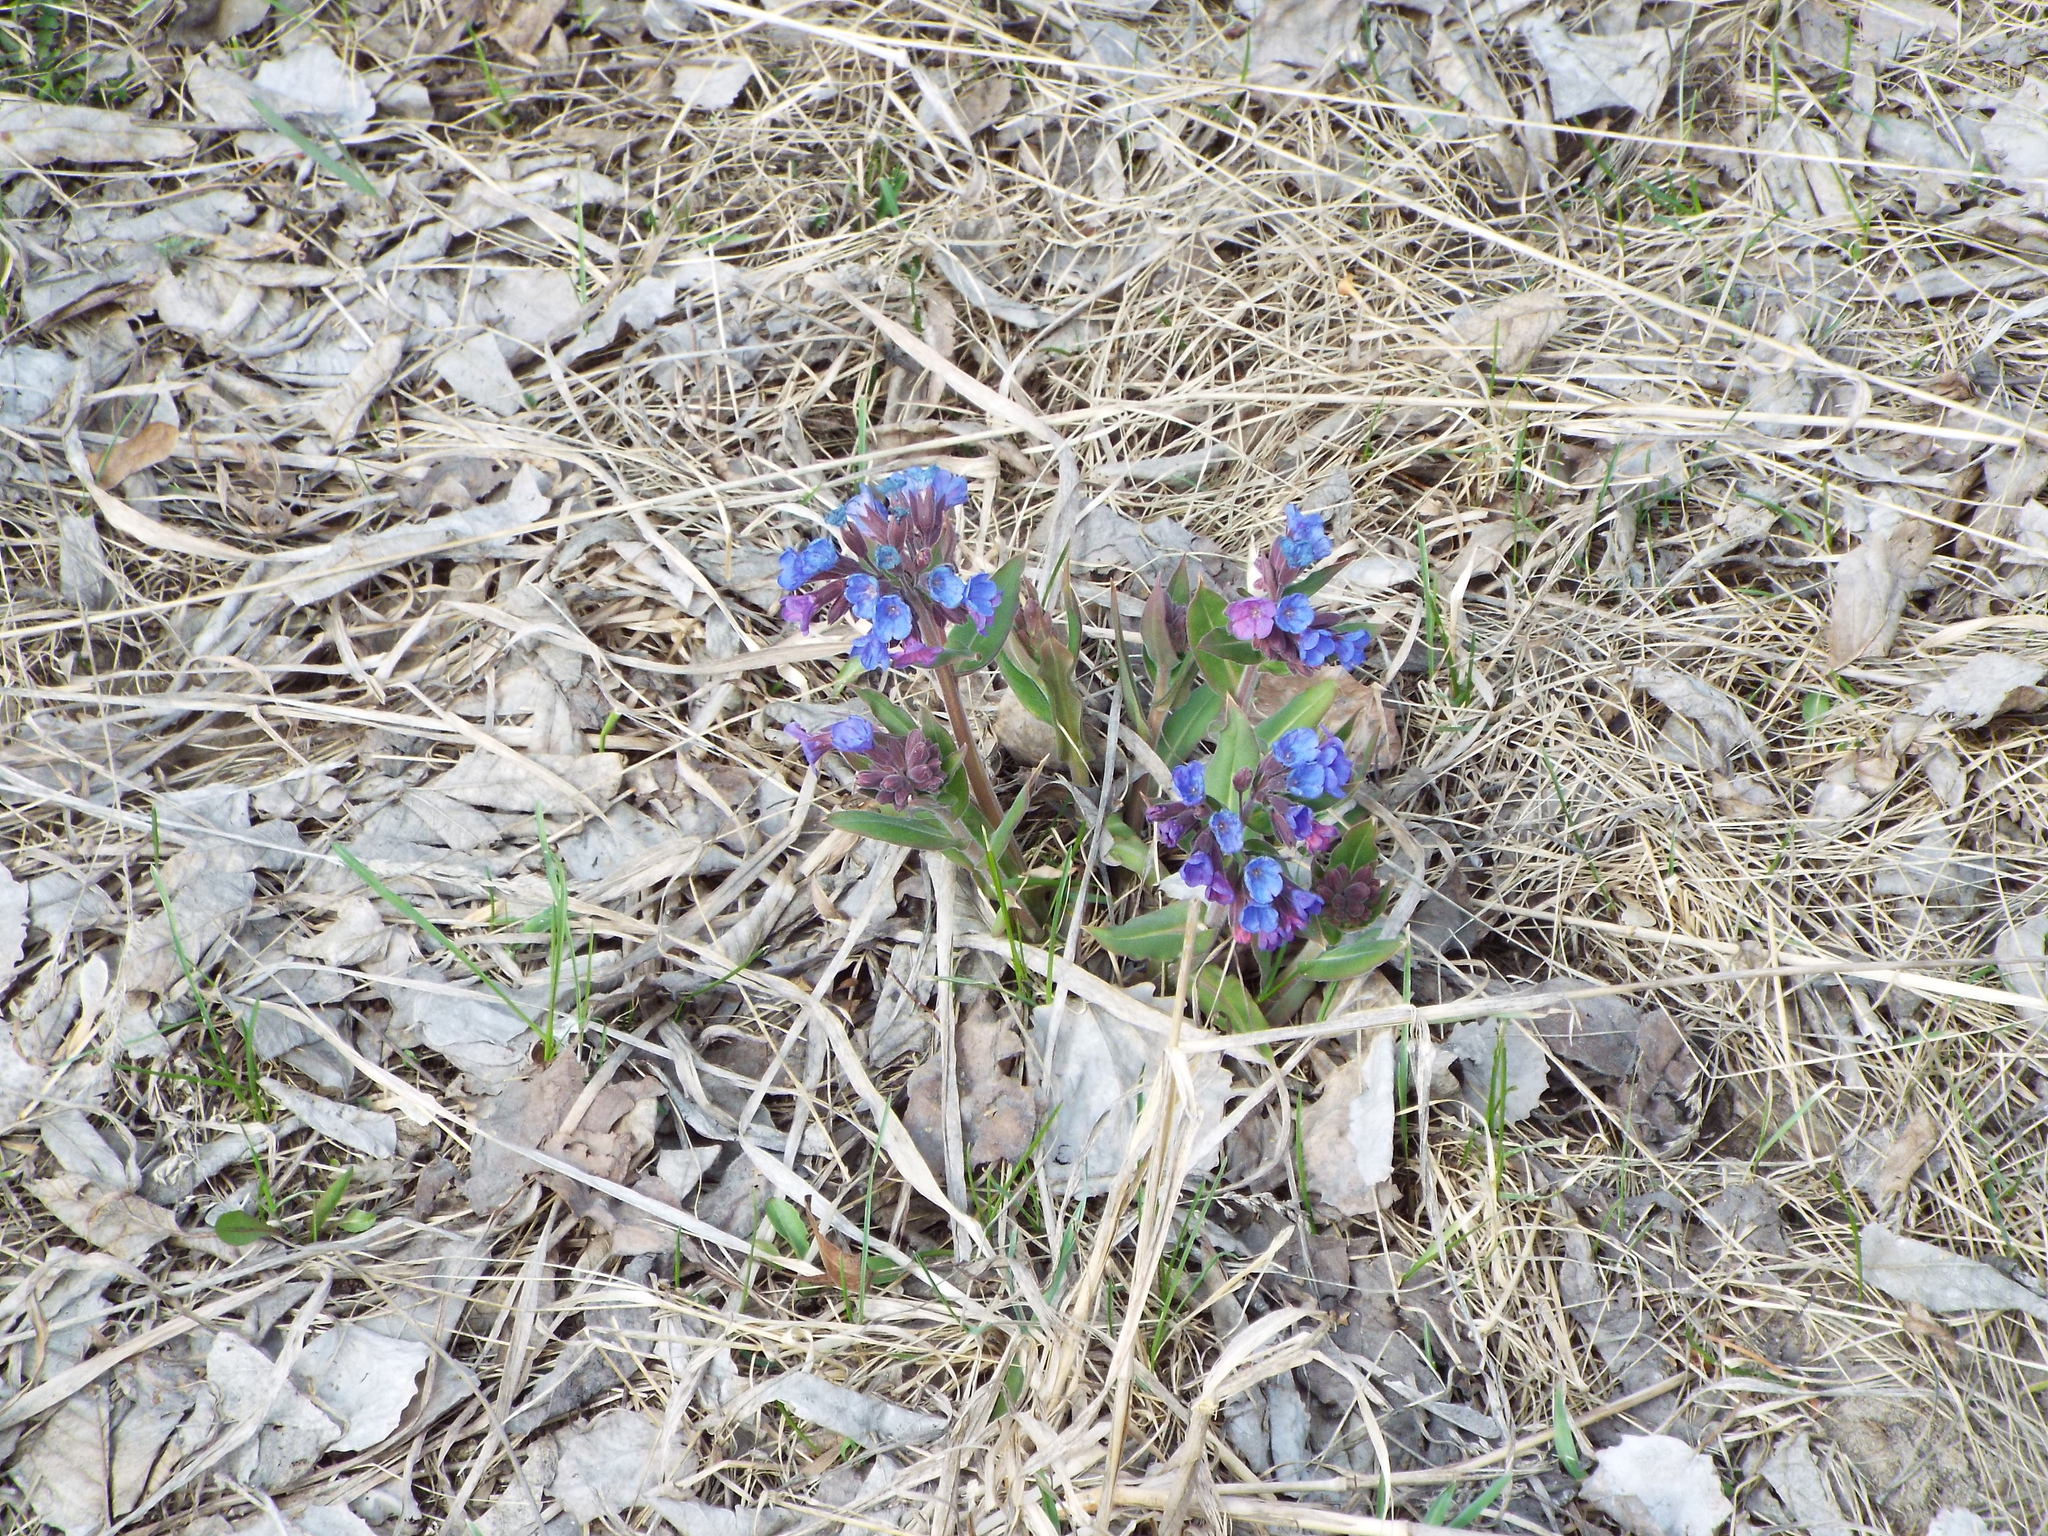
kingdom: Plantae
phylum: Tracheophyta
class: Magnoliopsida
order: Boraginales
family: Boraginaceae
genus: Pulmonaria
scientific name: Pulmonaria mollis
